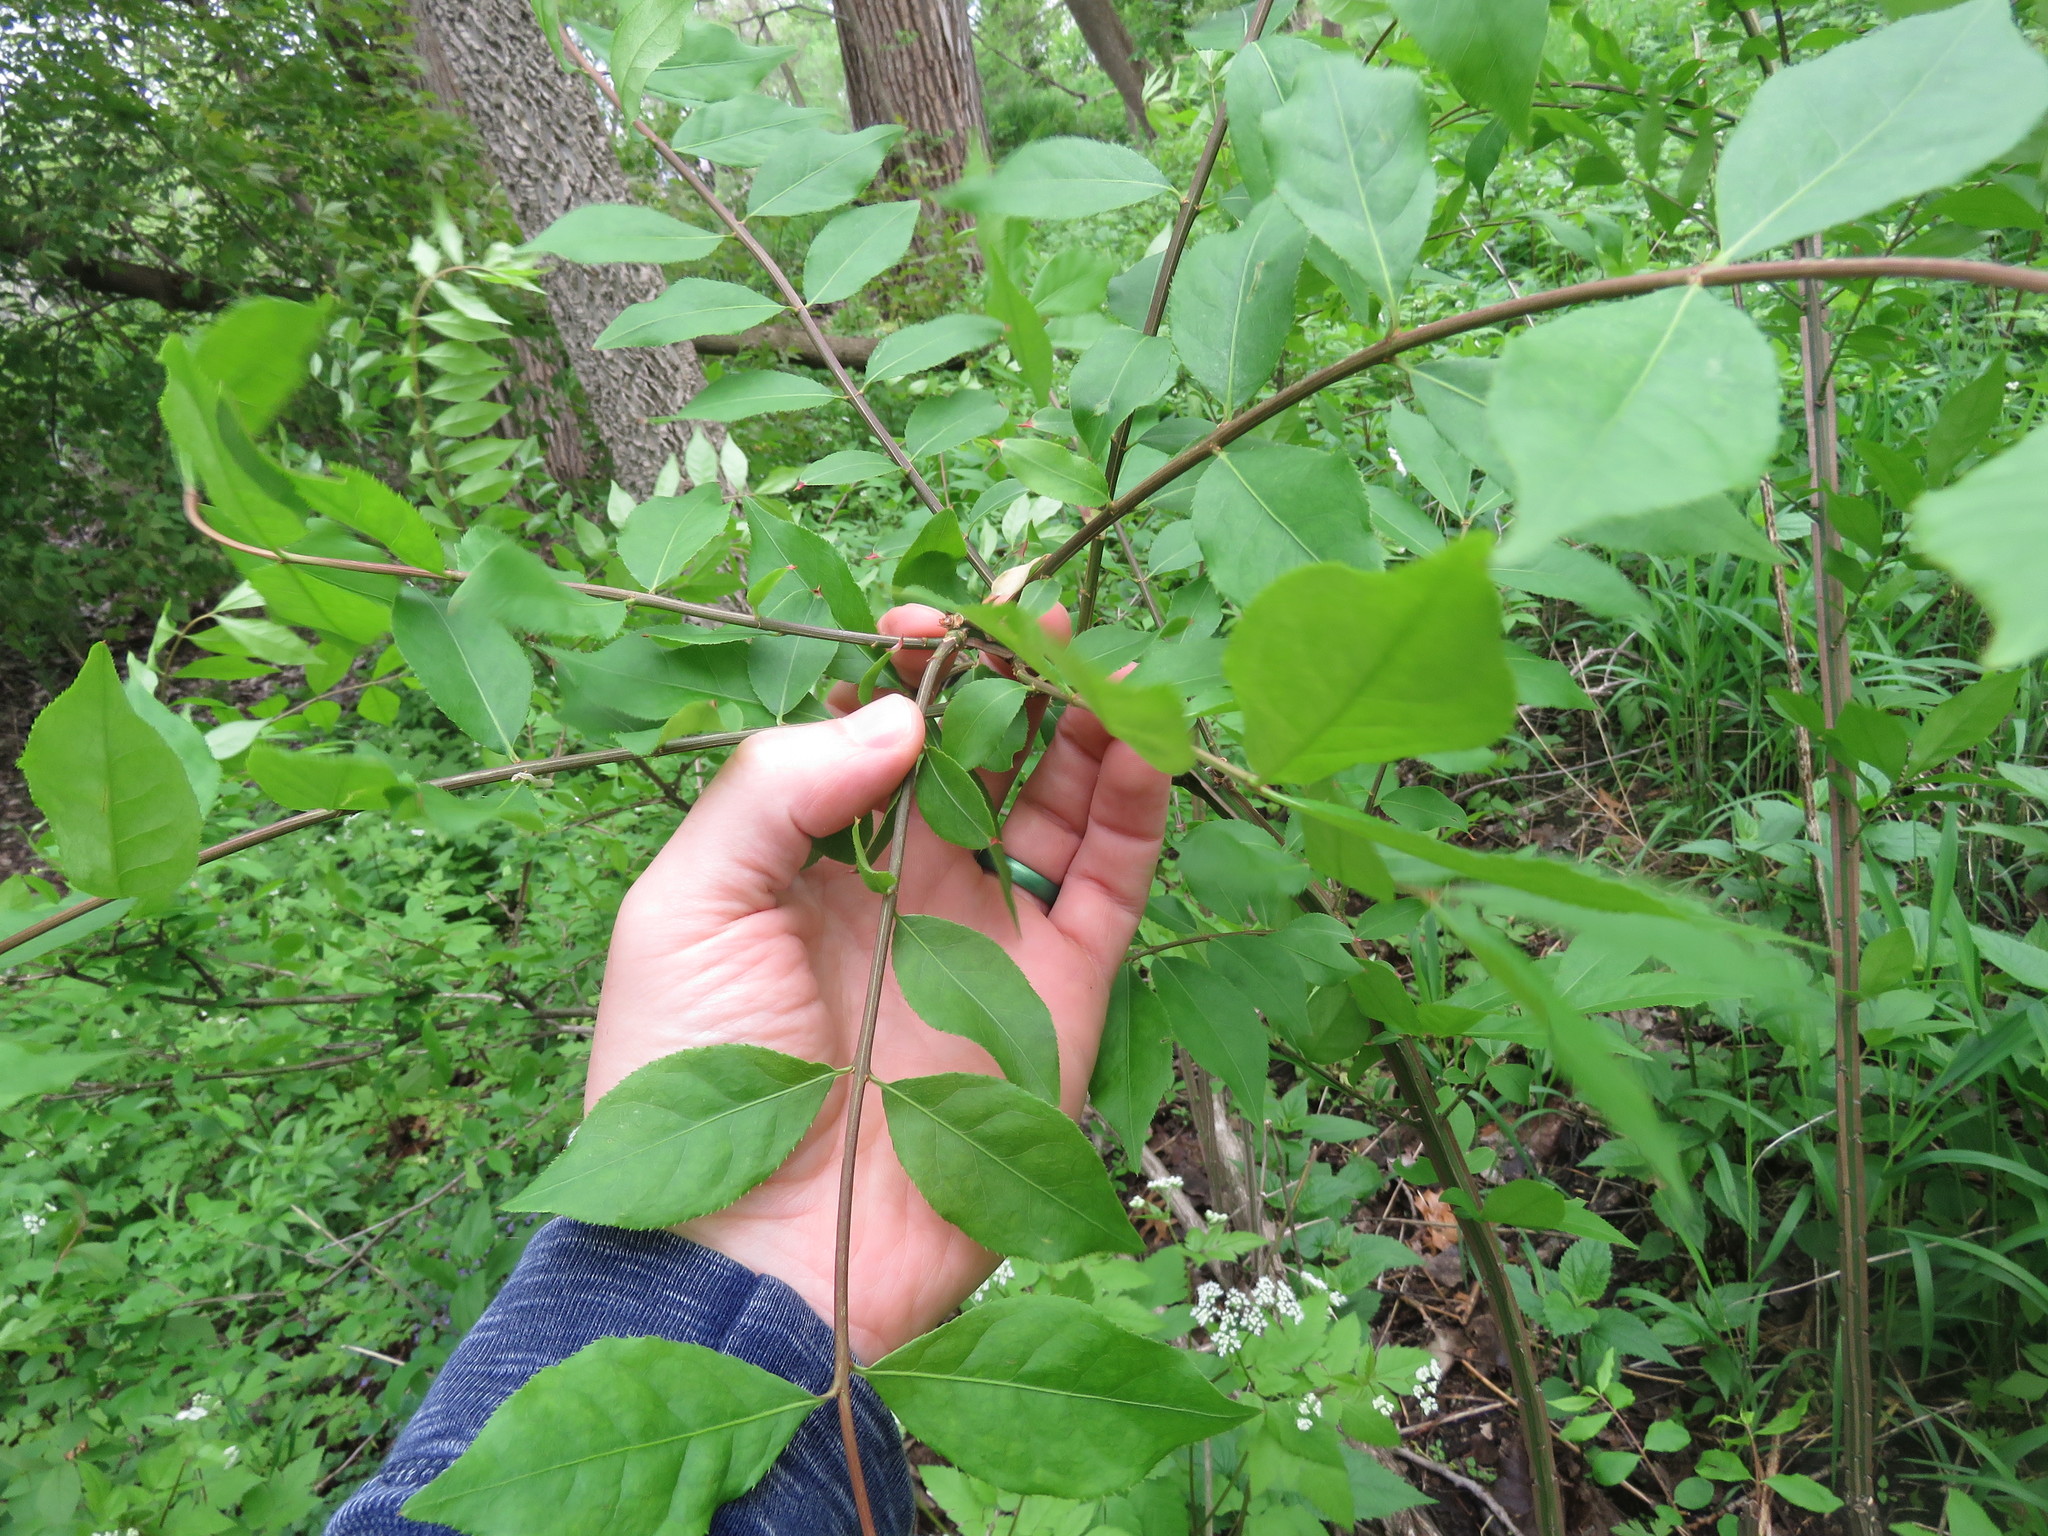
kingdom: Plantae
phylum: Tracheophyta
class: Magnoliopsida
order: Celastrales
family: Celastraceae
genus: Euonymus
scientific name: Euonymus alatus
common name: Winged euonymus
